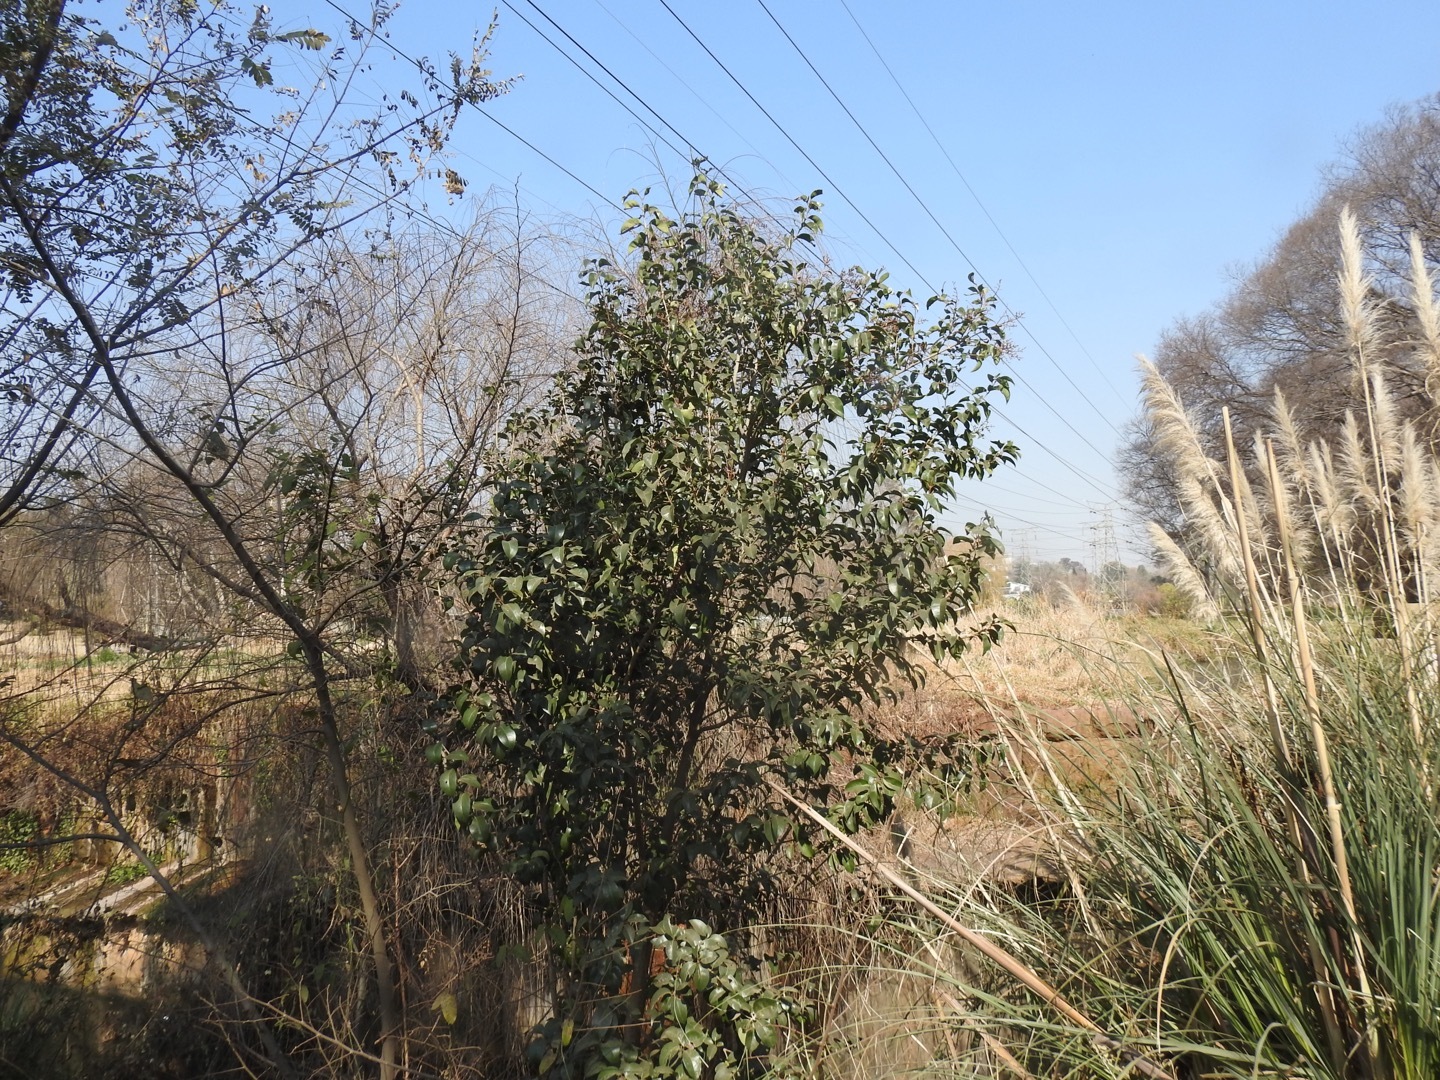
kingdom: Plantae
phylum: Tracheophyta
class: Magnoliopsida
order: Lamiales
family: Oleaceae
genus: Ligustrum
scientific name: Ligustrum lucidum
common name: Glossy privet
